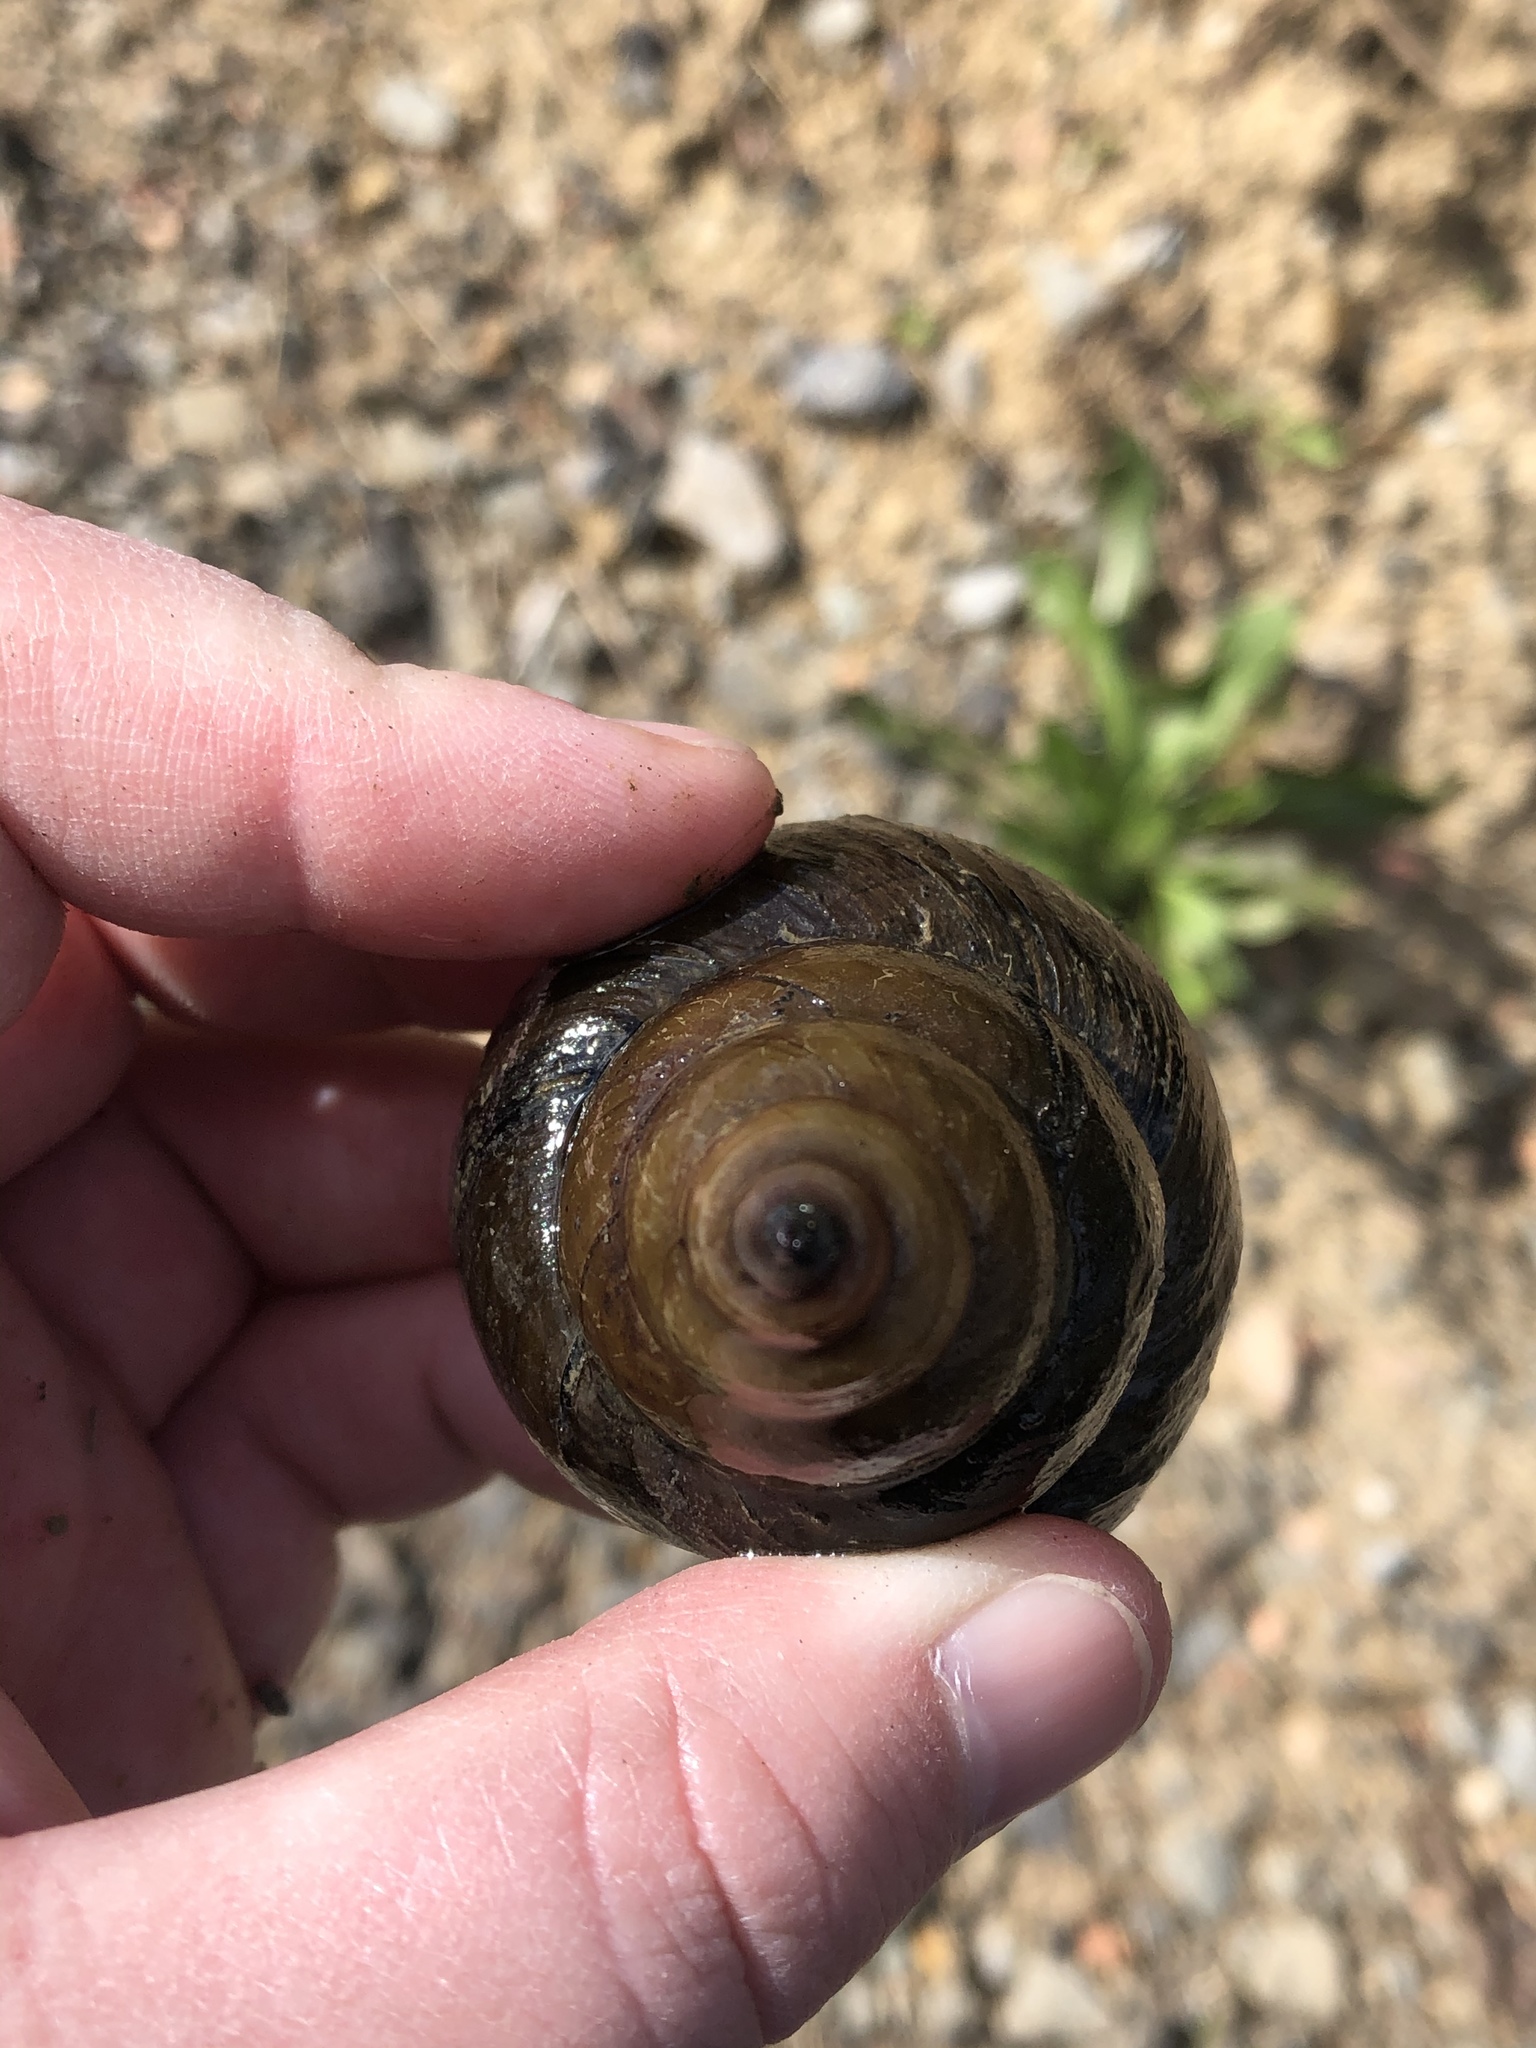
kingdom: Animalia
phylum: Mollusca
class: Gastropoda
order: Architaenioglossa
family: Viviparidae
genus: Cipangopaludina
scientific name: Cipangopaludina chinensis
